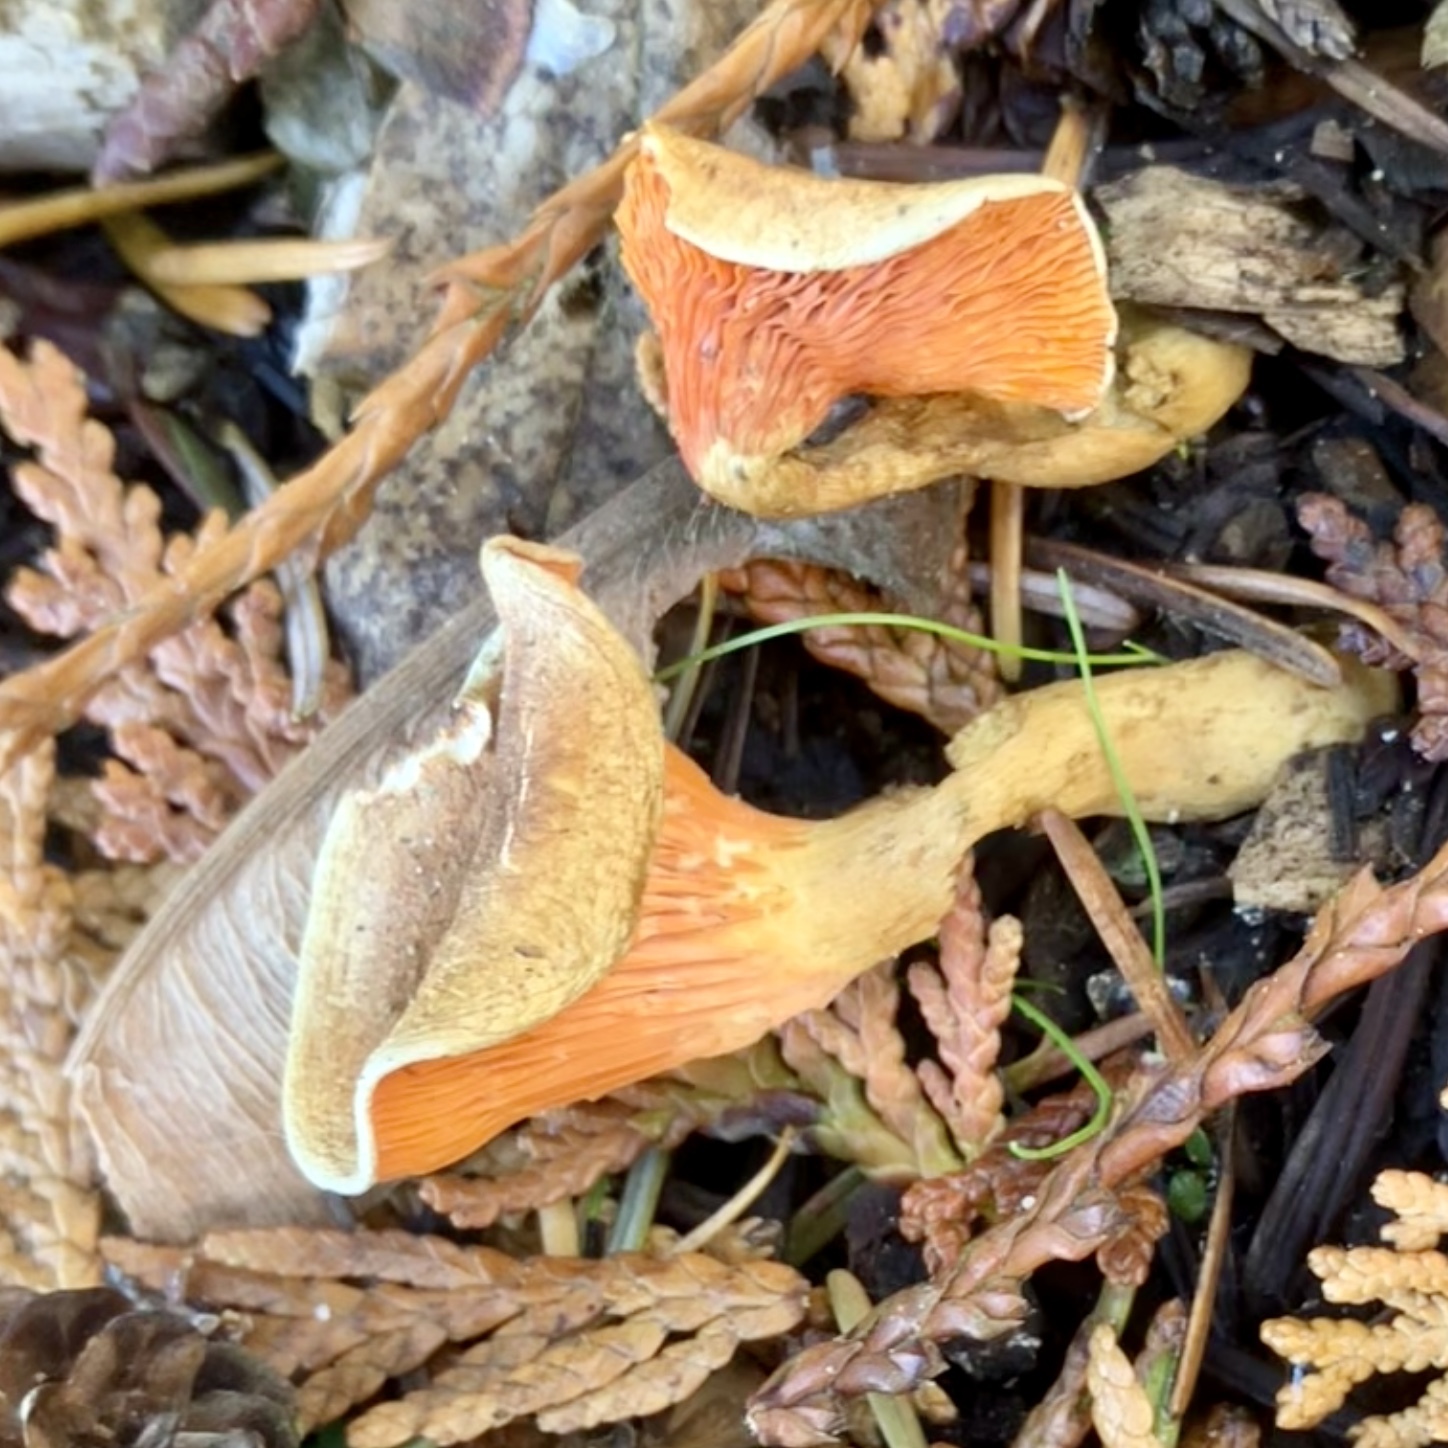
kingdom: Fungi
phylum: Basidiomycota
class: Agaricomycetes
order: Boletales
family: Hygrophoropsidaceae
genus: Hygrophoropsis
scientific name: Hygrophoropsis aurantiaca
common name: False chanterelle
